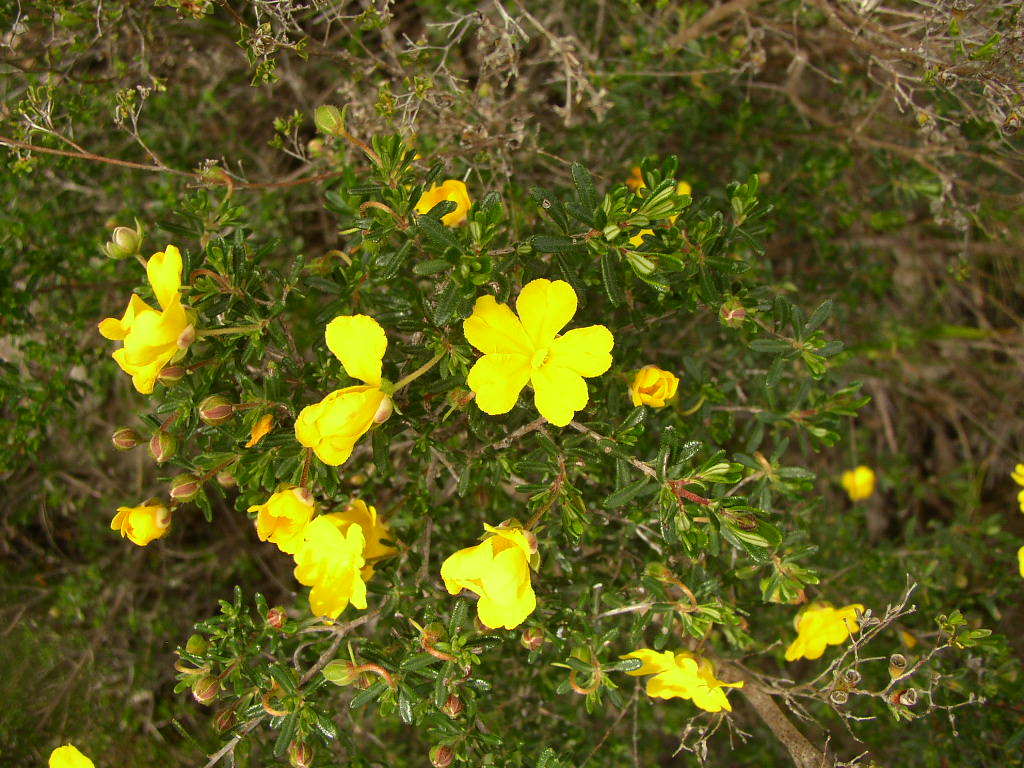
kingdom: Plantae
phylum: Tracheophyta
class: Magnoliopsida
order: Dilleniales
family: Dilleniaceae
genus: Hibbertia
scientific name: Hibbertia hypericoides
